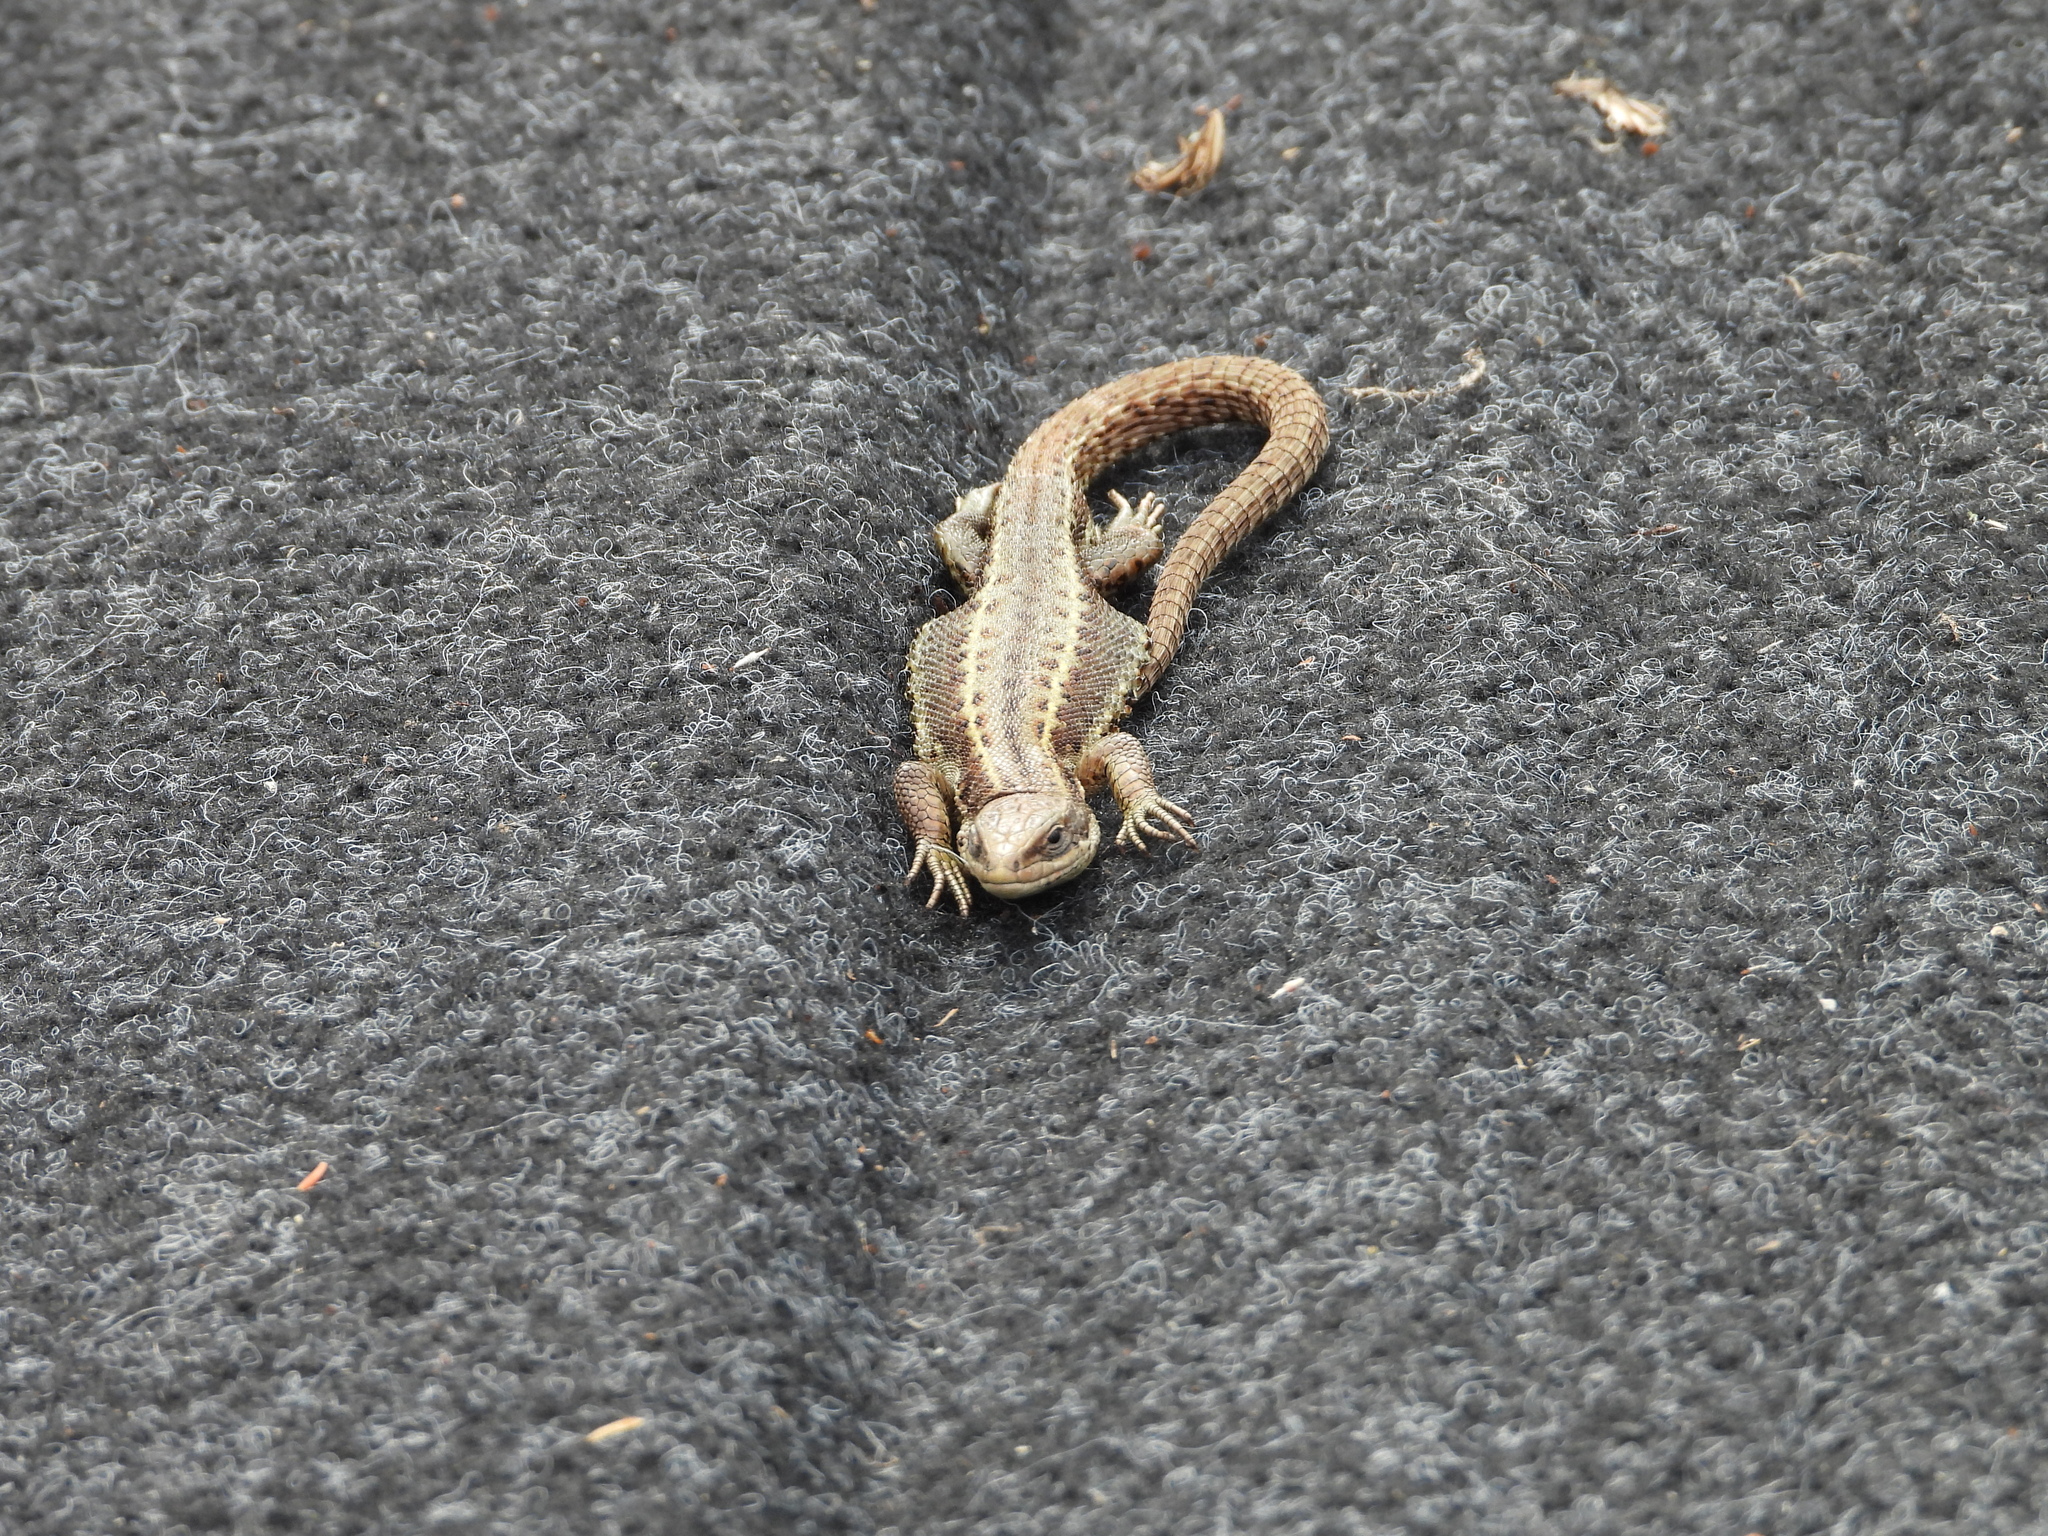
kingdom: Animalia
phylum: Chordata
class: Squamata
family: Lacertidae
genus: Zootoca
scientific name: Zootoca vivipara
